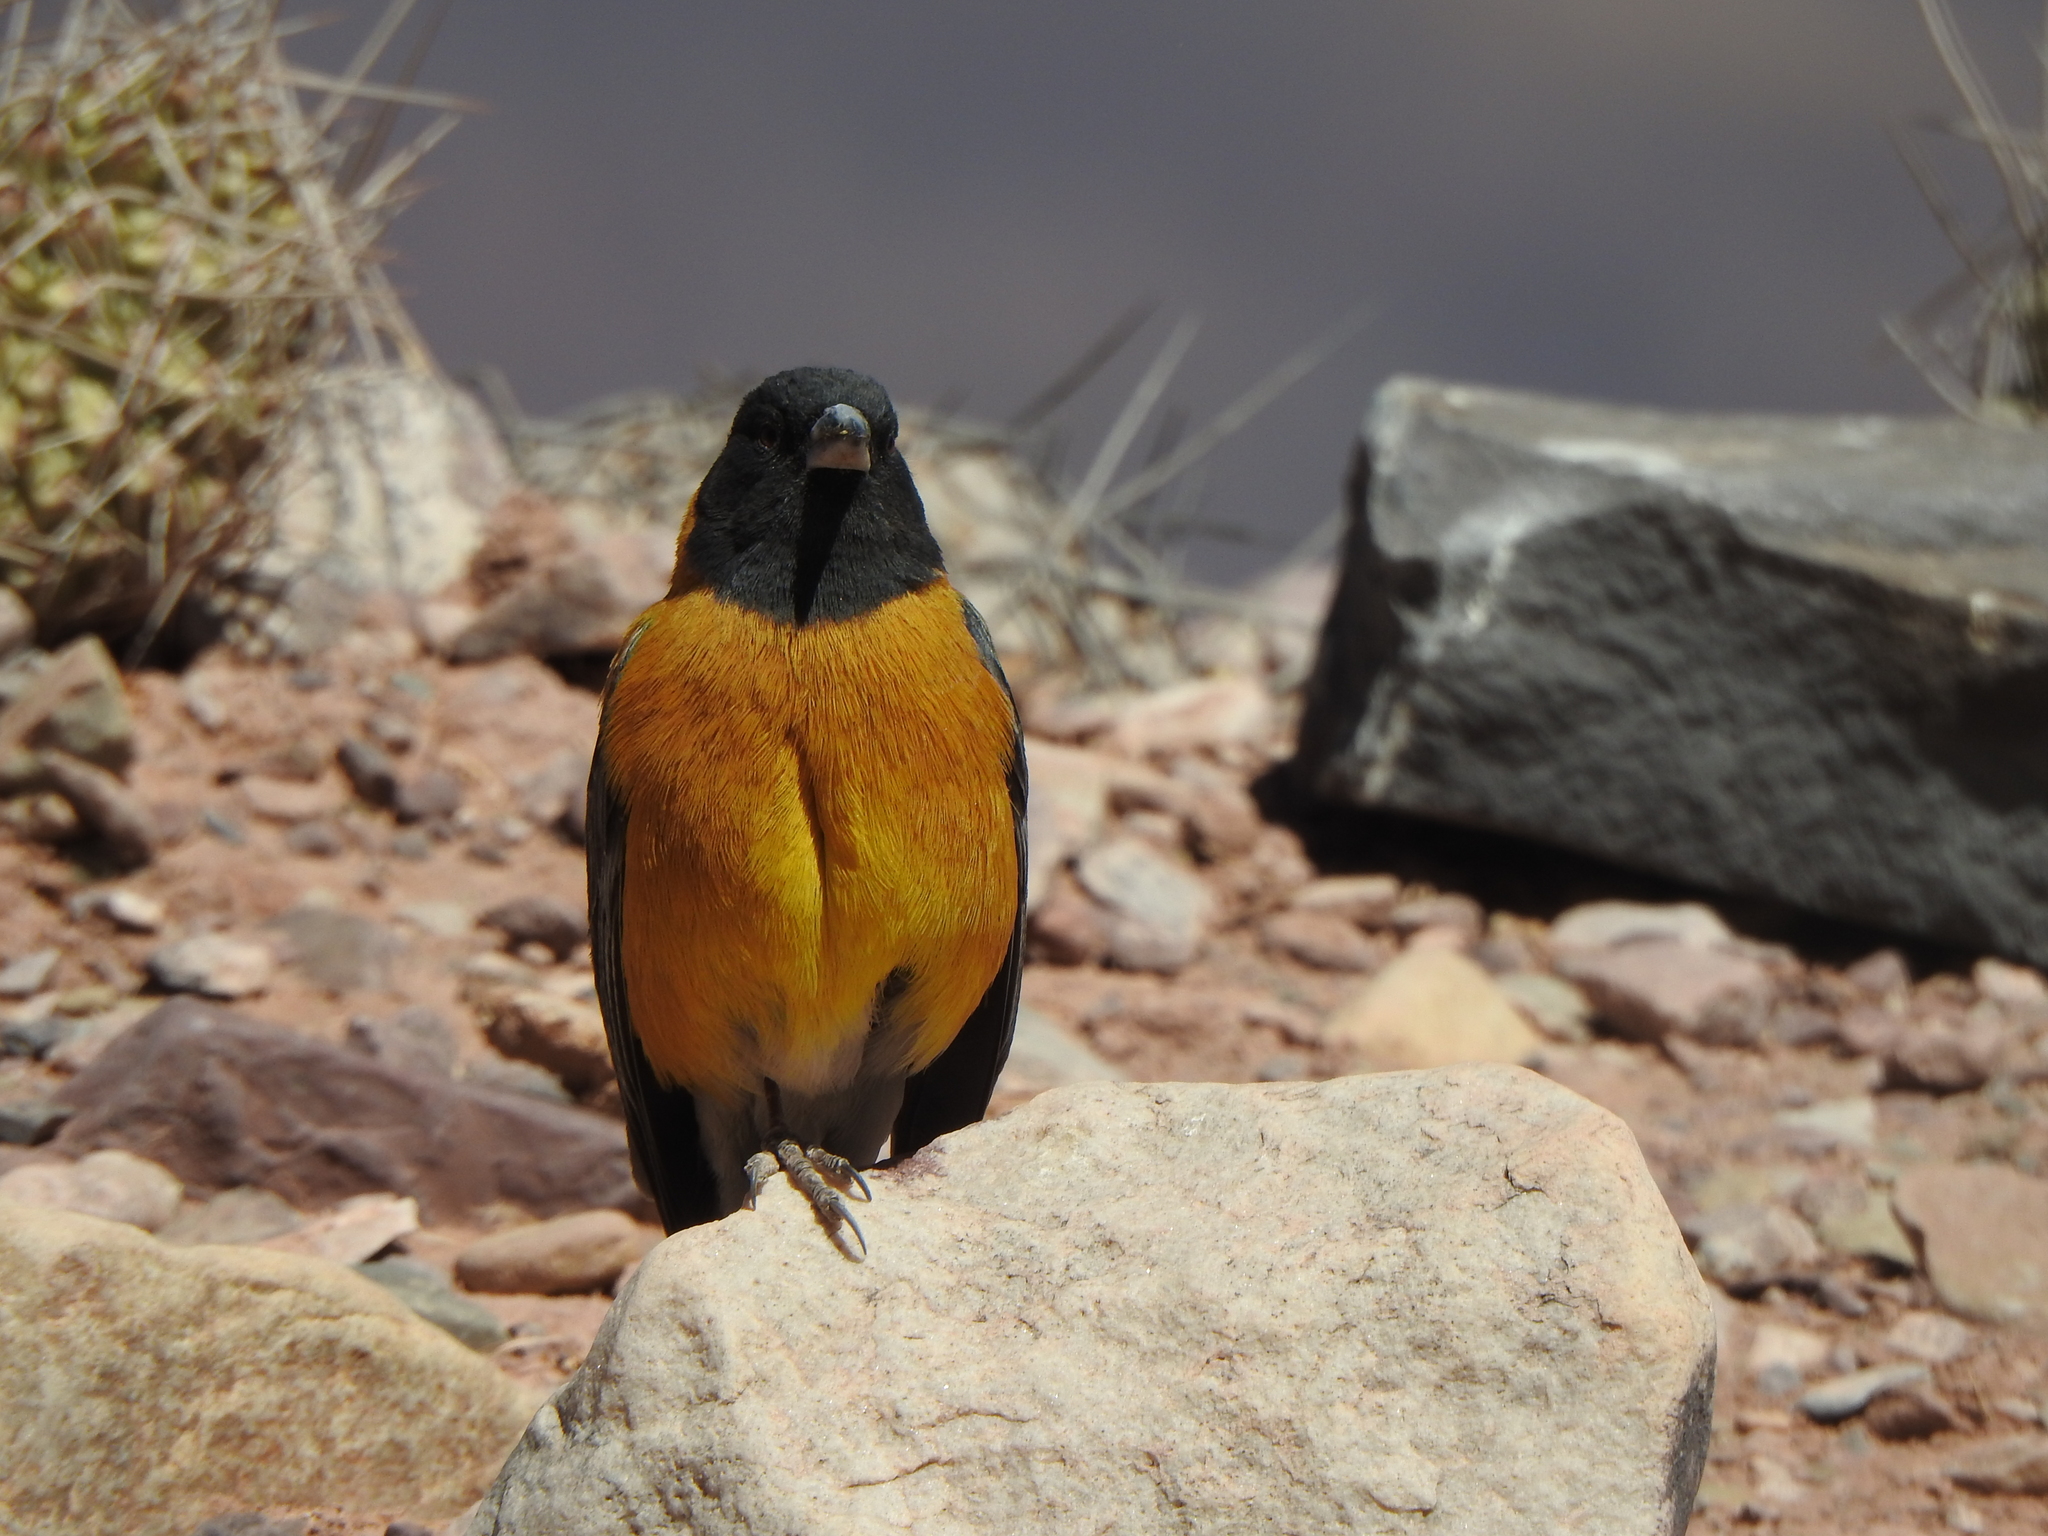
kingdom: Animalia
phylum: Chordata
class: Aves
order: Passeriformes
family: Thraupidae
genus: Phrygilus
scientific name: Phrygilus atriceps
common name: Black-hooded sierra finch
